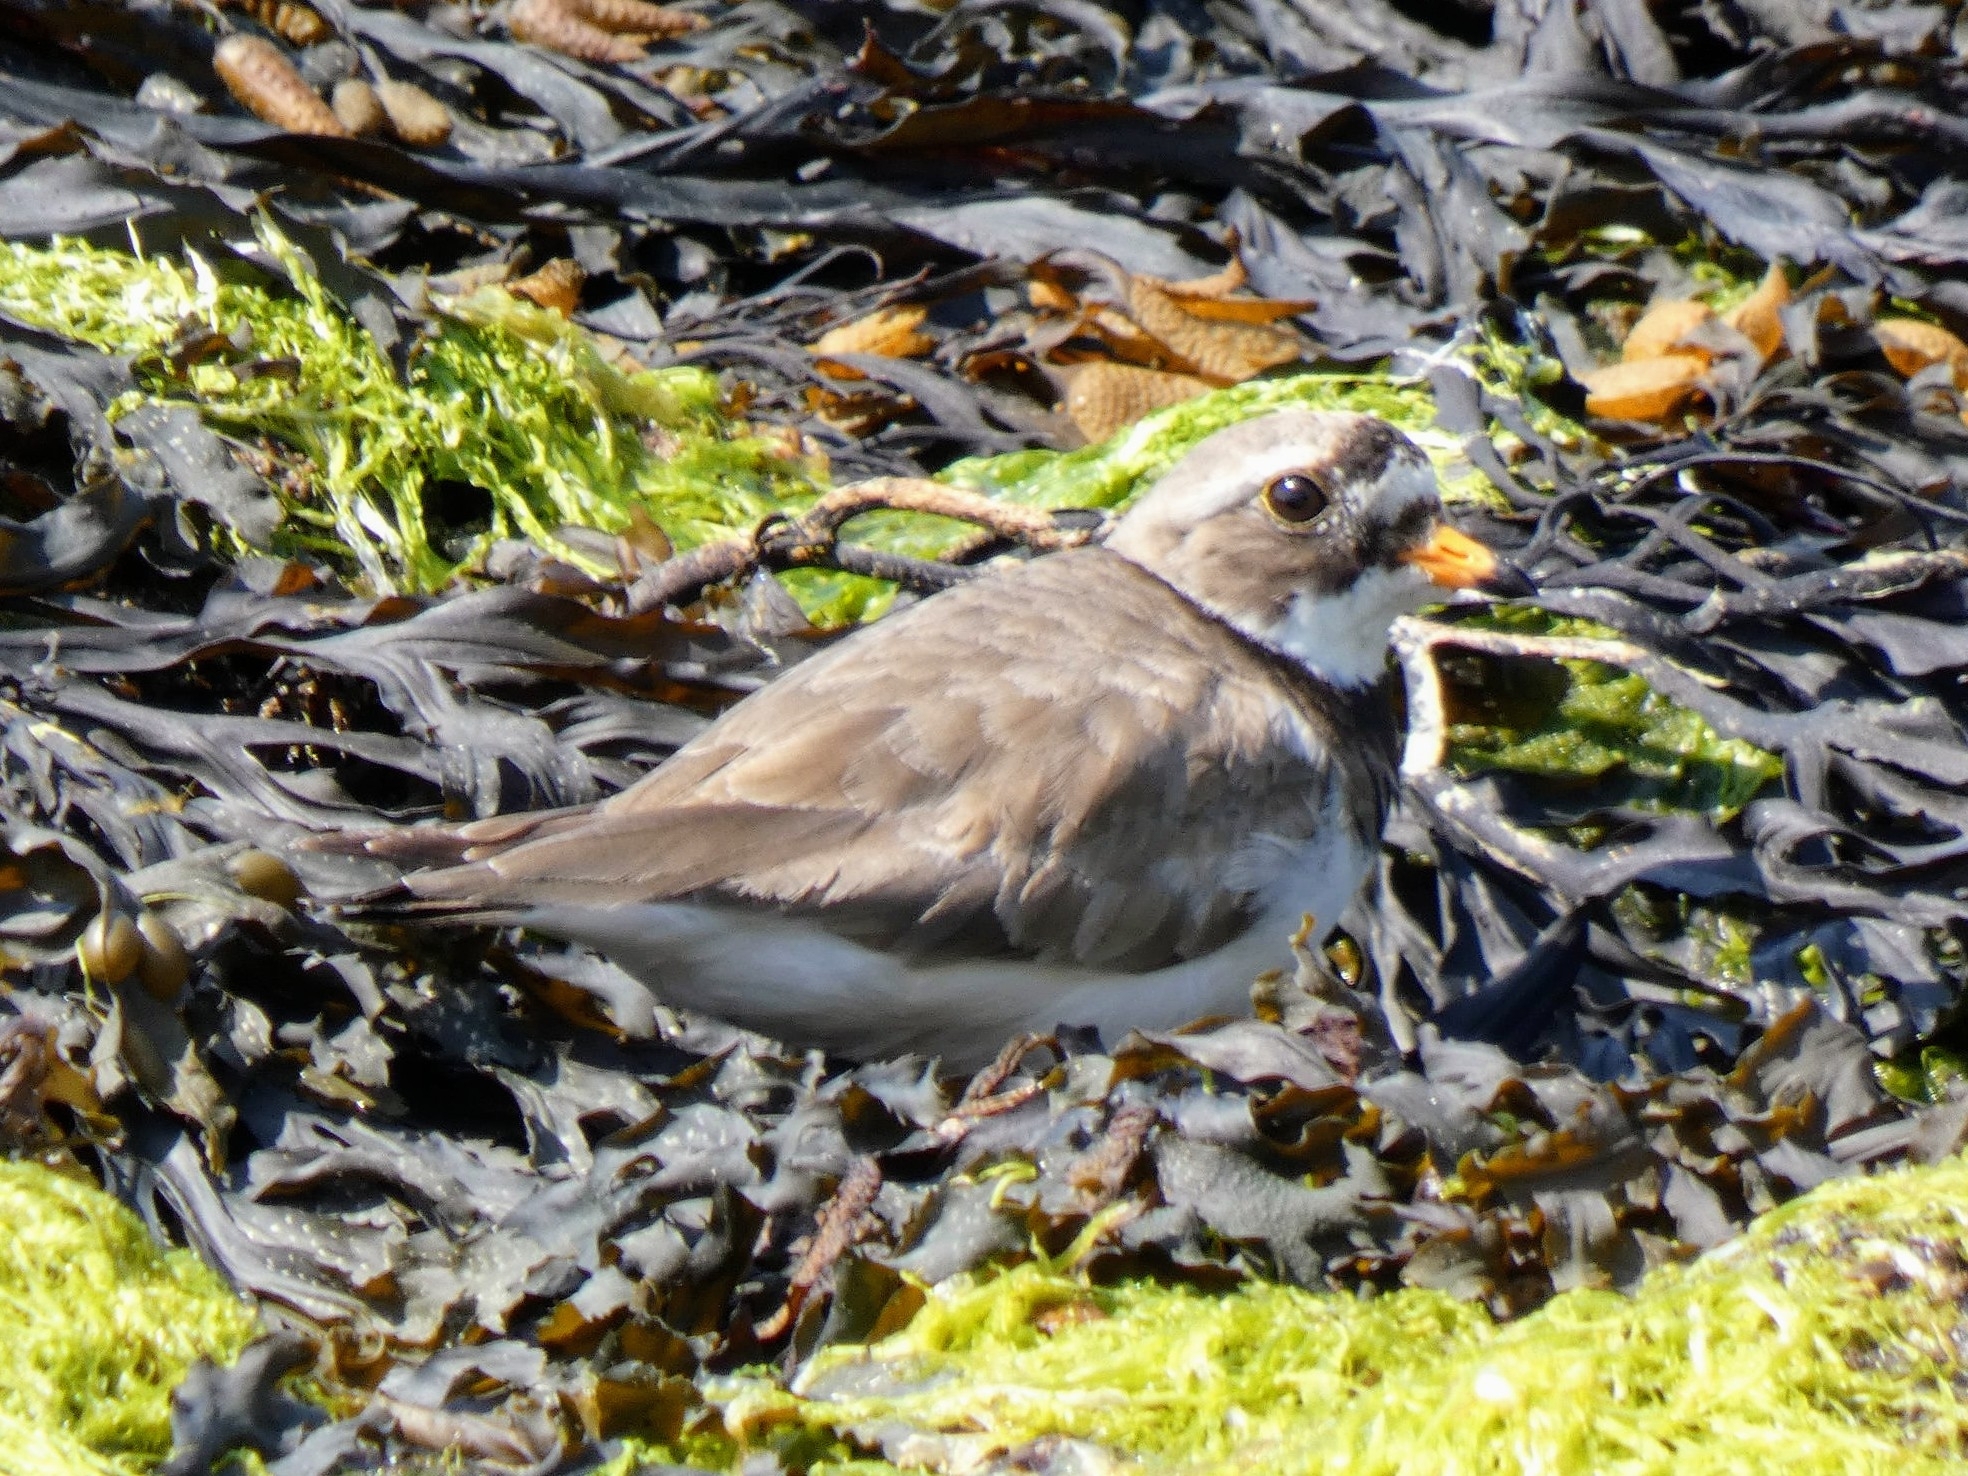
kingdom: Animalia
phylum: Chordata
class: Aves
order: Charadriiformes
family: Charadriidae
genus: Charadrius
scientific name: Charadrius hiaticula
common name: Common ringed plover
